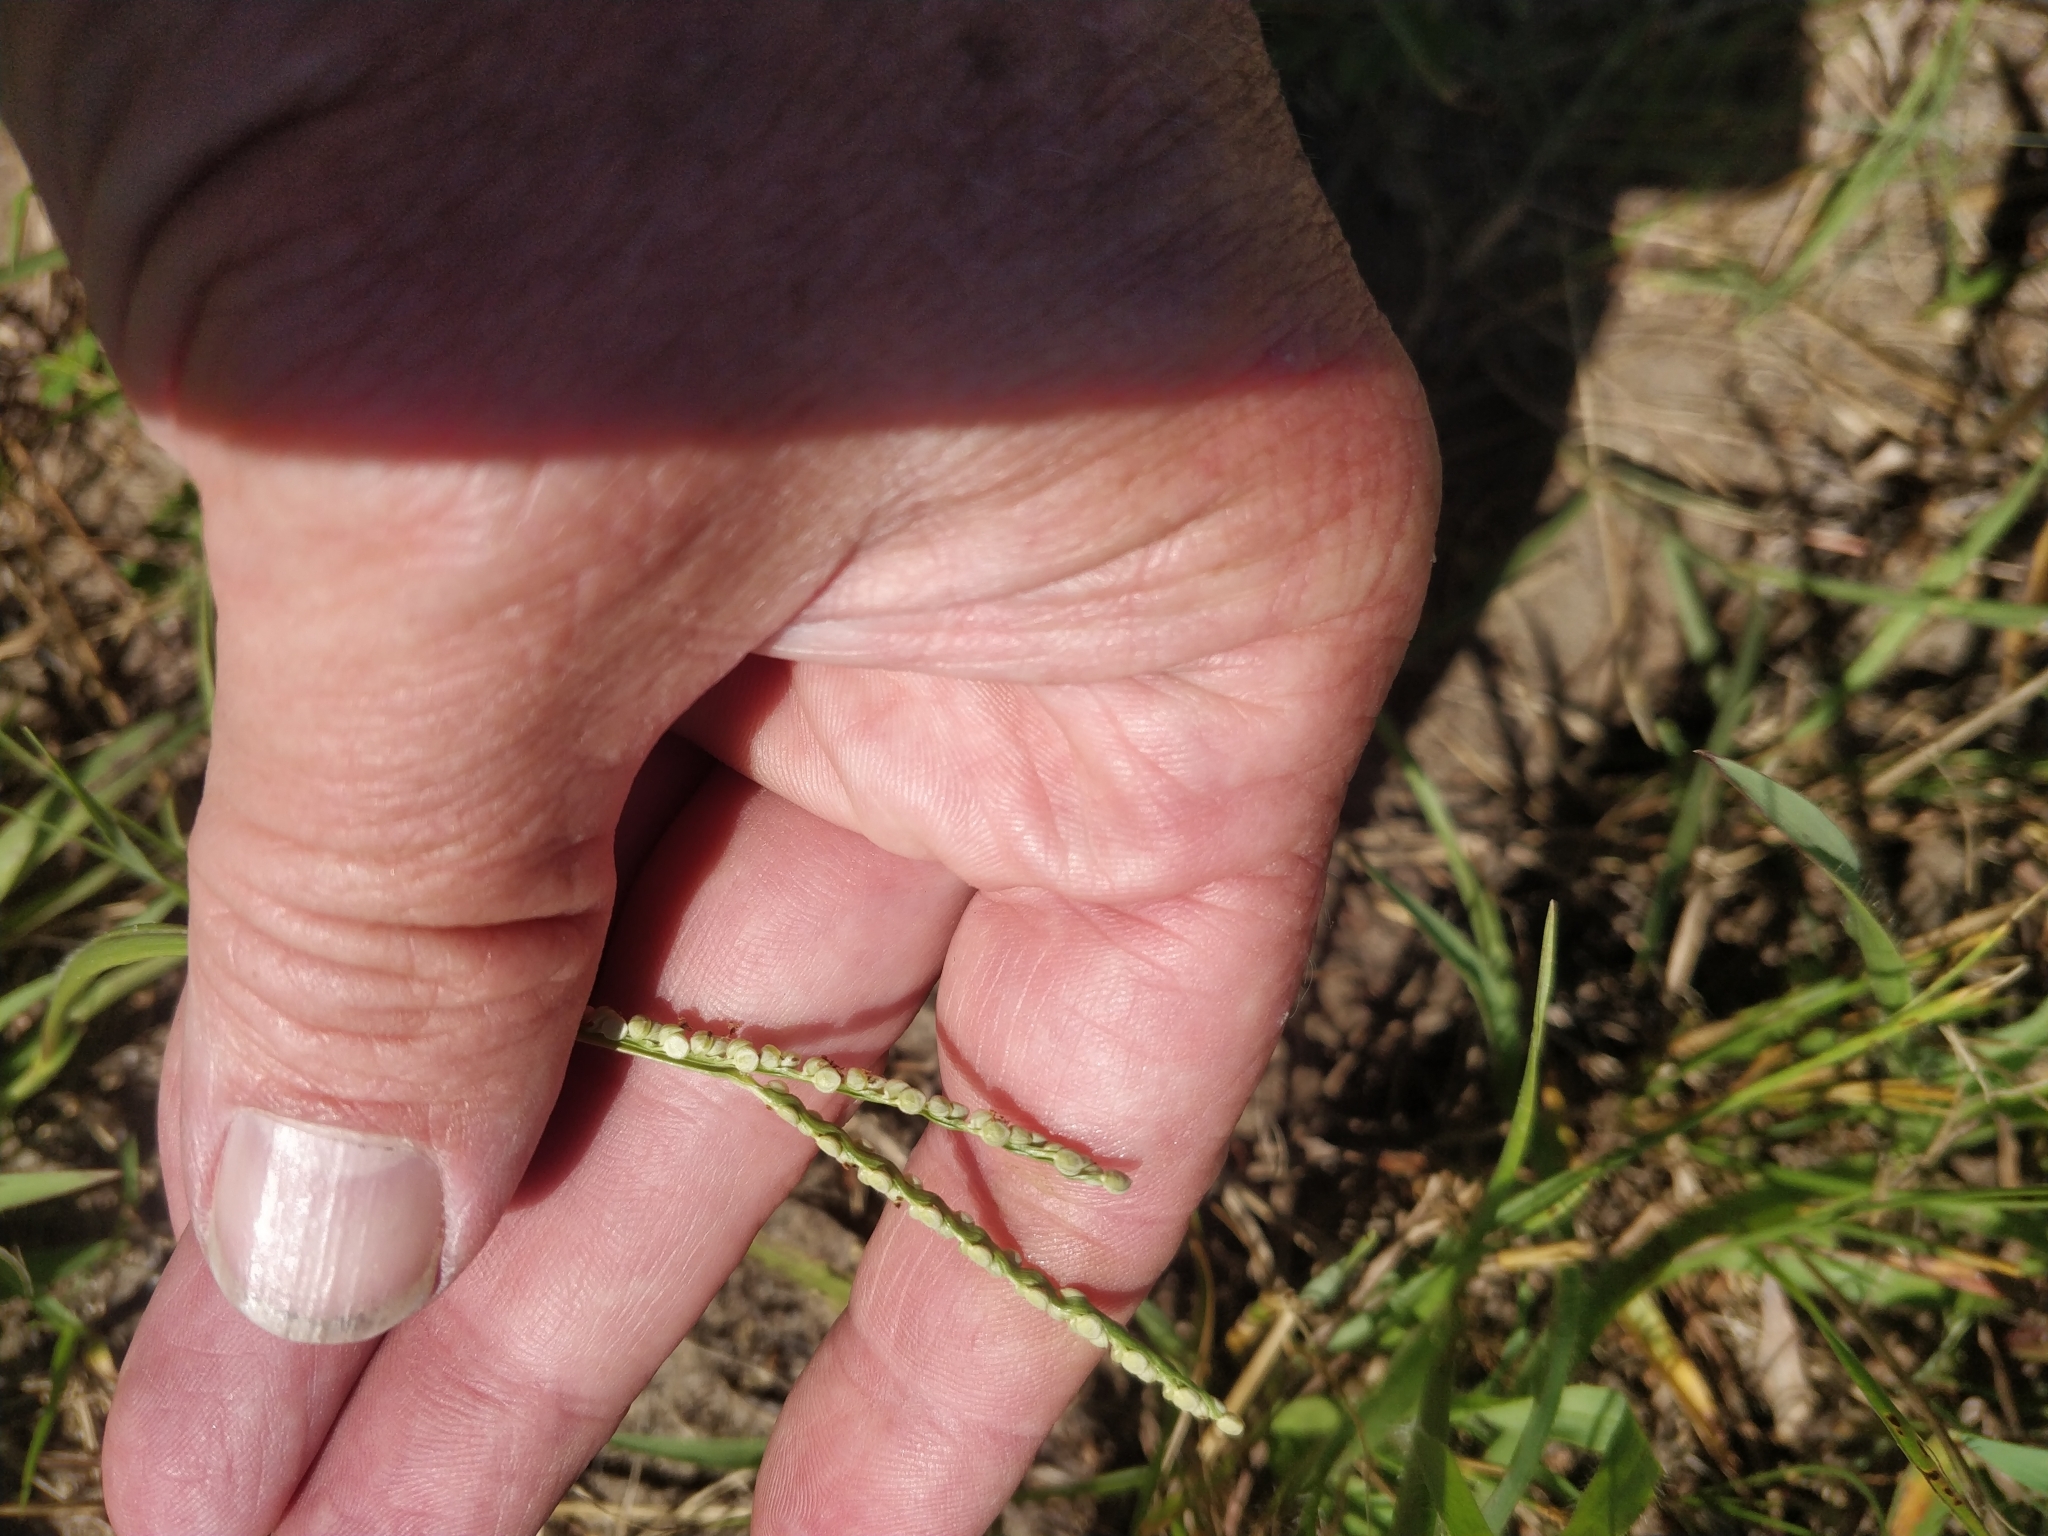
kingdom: Plantae
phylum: Tracheophyta
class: Liliopsida
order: Poales
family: Poaceae
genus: Paspalum
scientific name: Paspalum setaceum
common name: Slender paspalum
